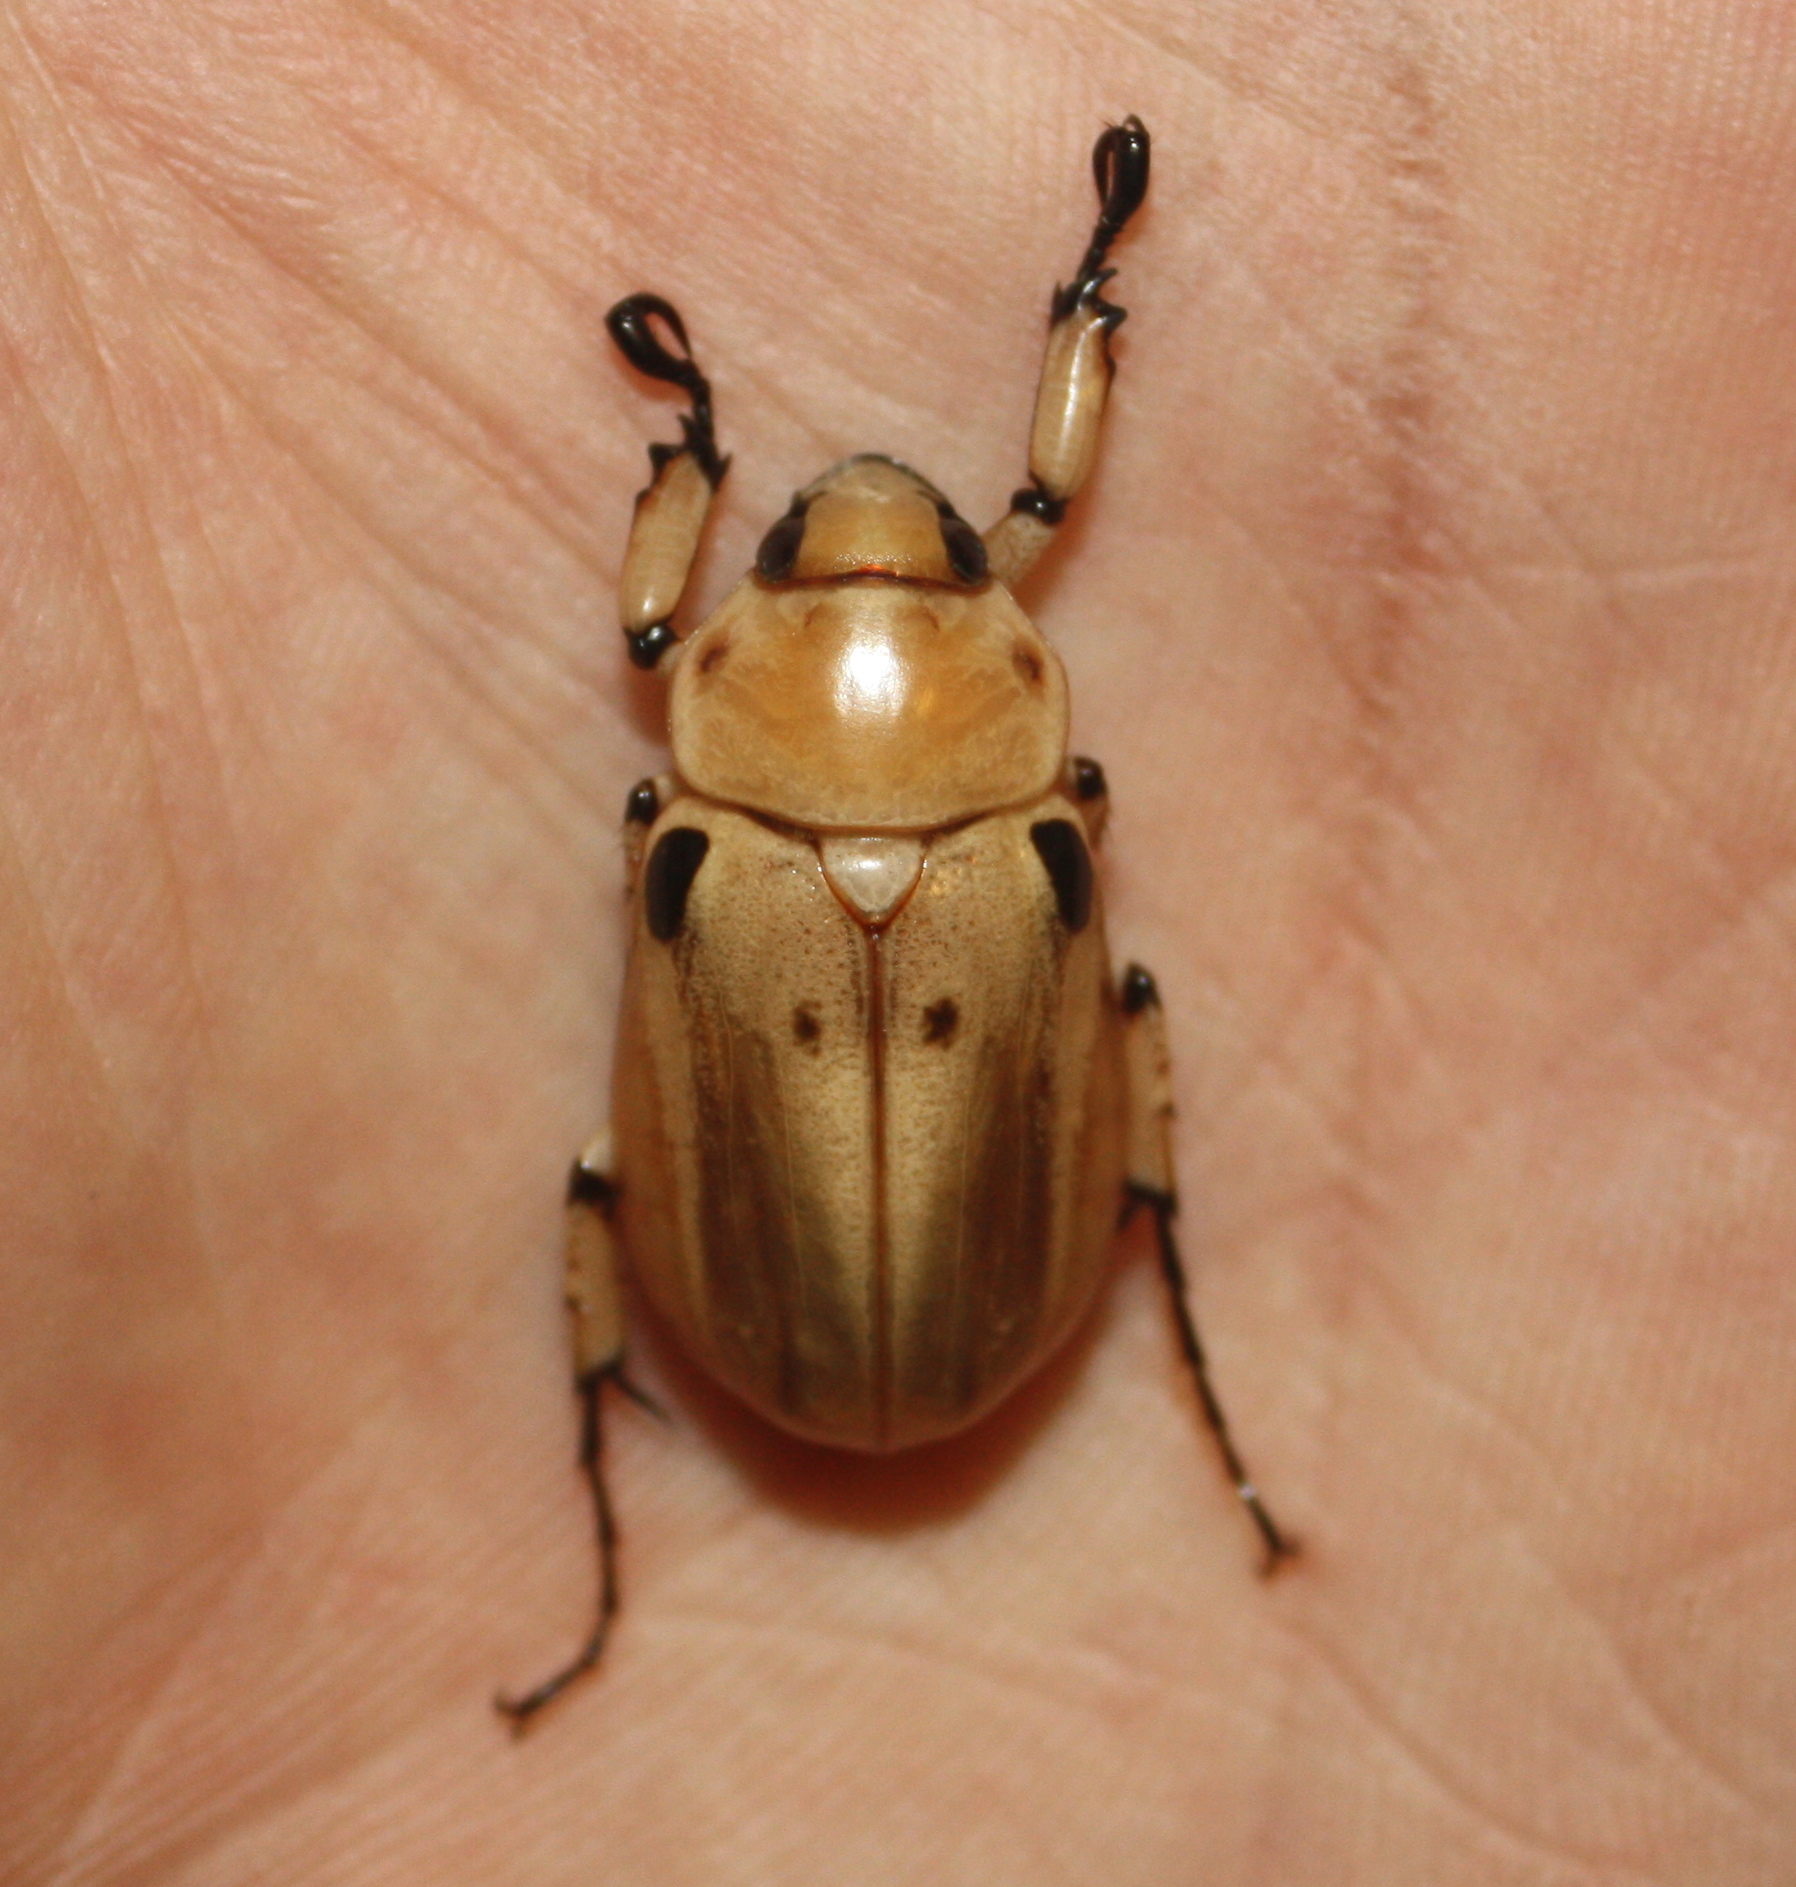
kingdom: Animalia
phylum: Arthropoda
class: Insecta
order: Coleoptera
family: Scarabaeidae
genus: Ancognatha
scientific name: Ancognatha vulgaris
